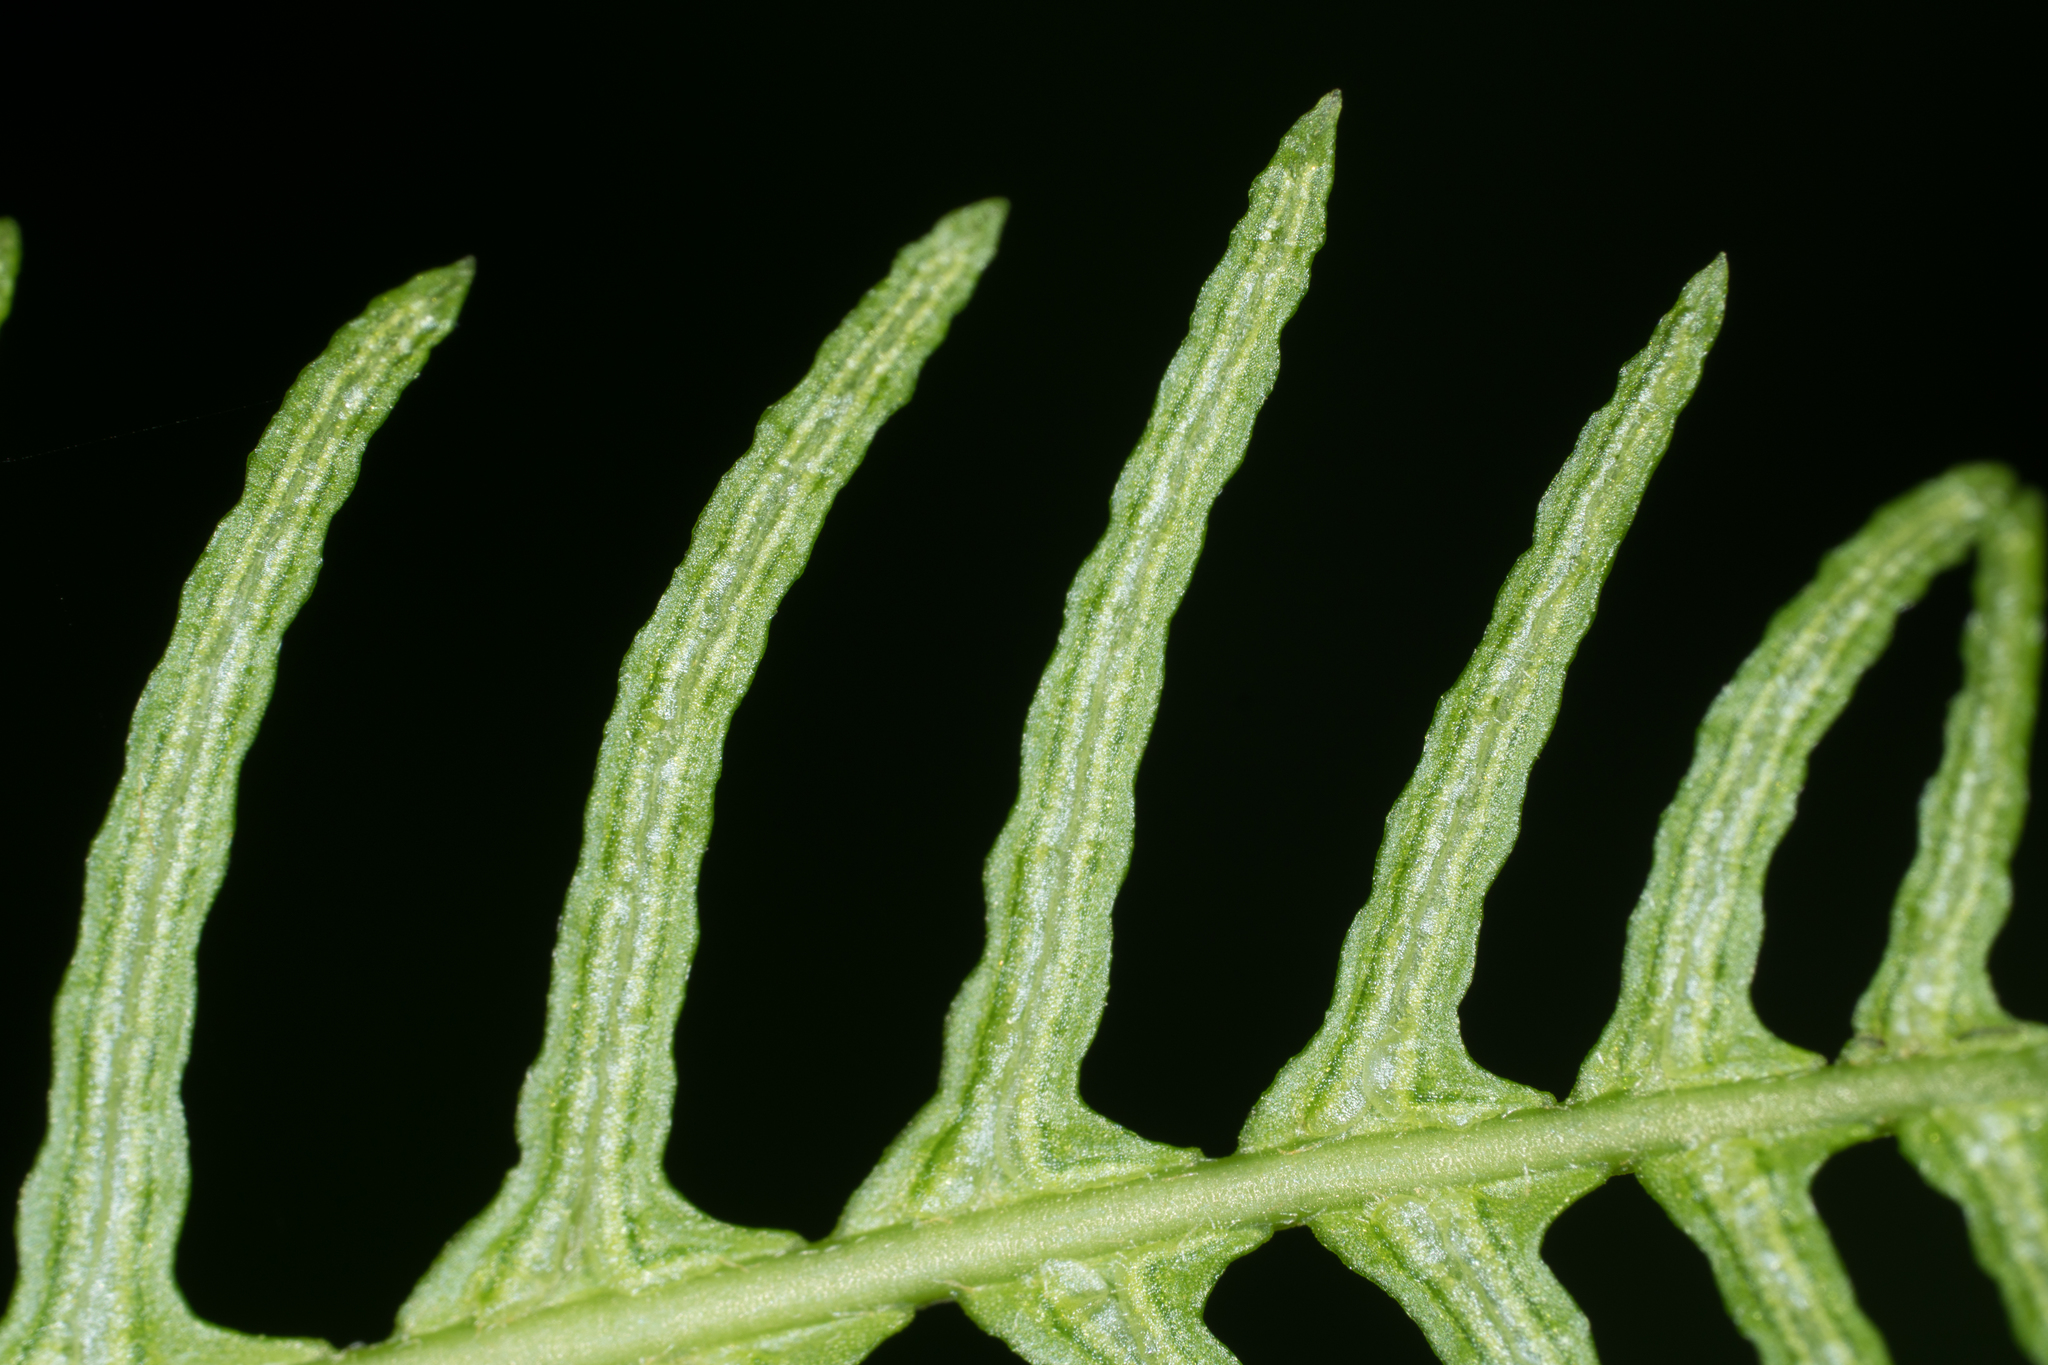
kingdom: Plantae
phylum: Tracheophyta
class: Polypodiopsida
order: Polypodiales
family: Blechnaceae
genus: Struthiopteris
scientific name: Struthiopteris spicant
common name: Deer fern
